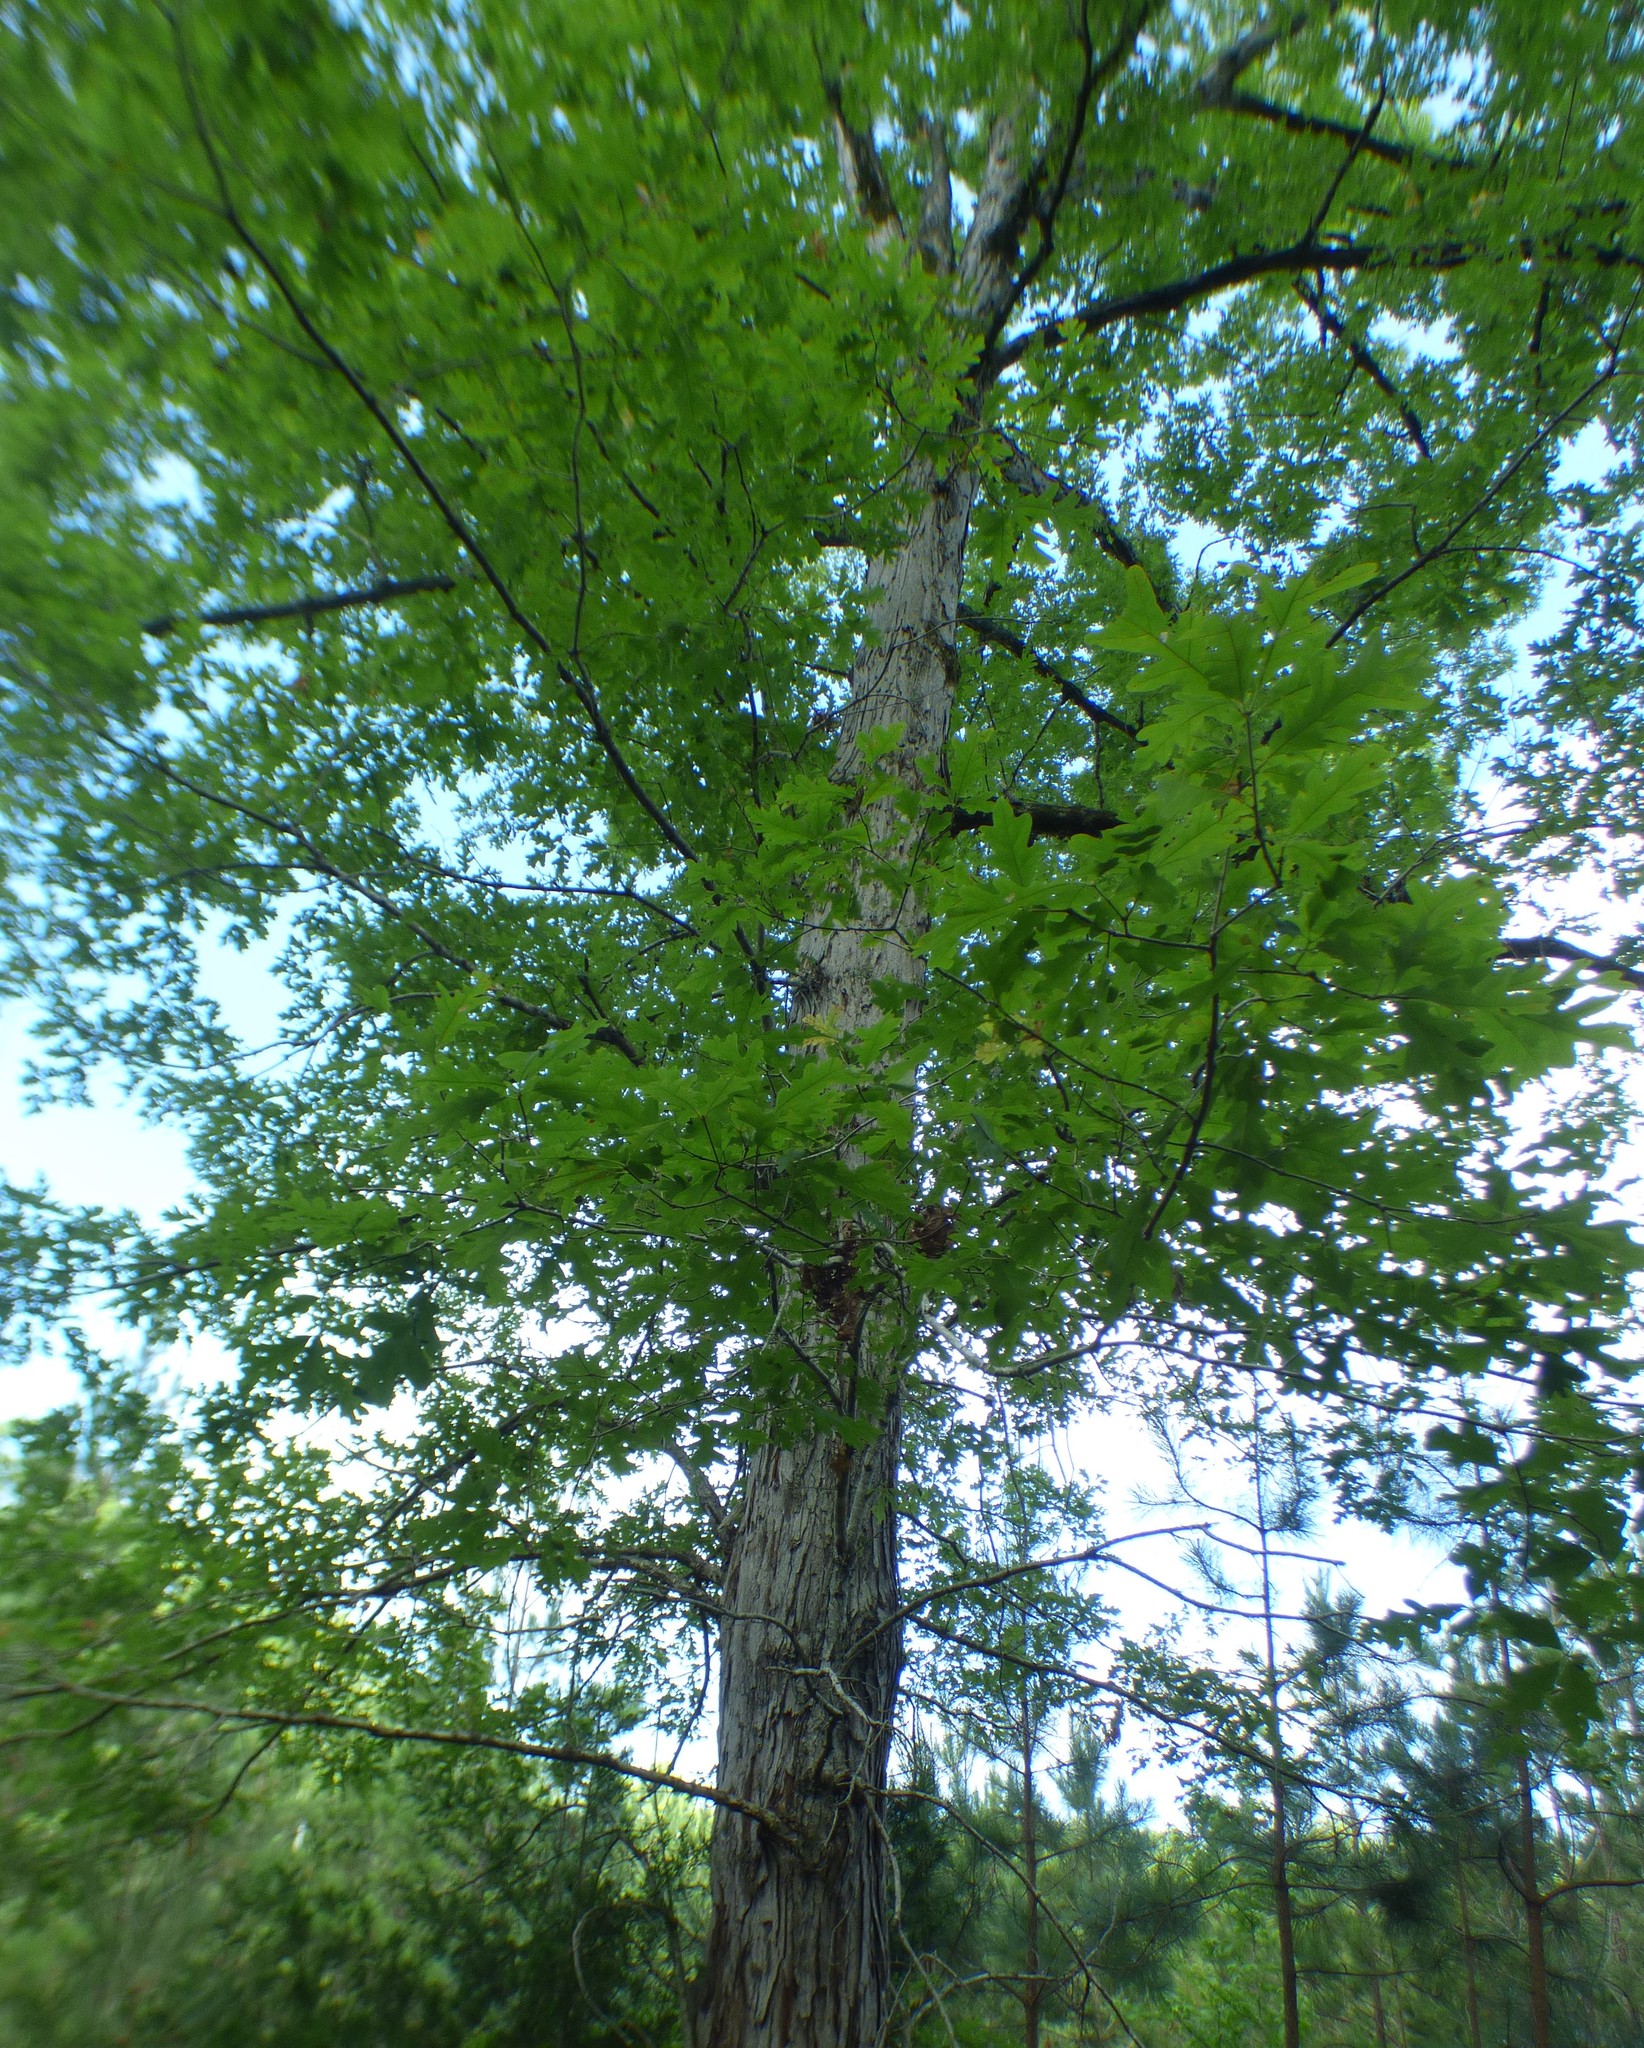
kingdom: Plantae
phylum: Tracheophyta
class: Magnoliopsida
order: Fagales
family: Fagaceae
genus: Quercus
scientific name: Quercus alba
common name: White oak
